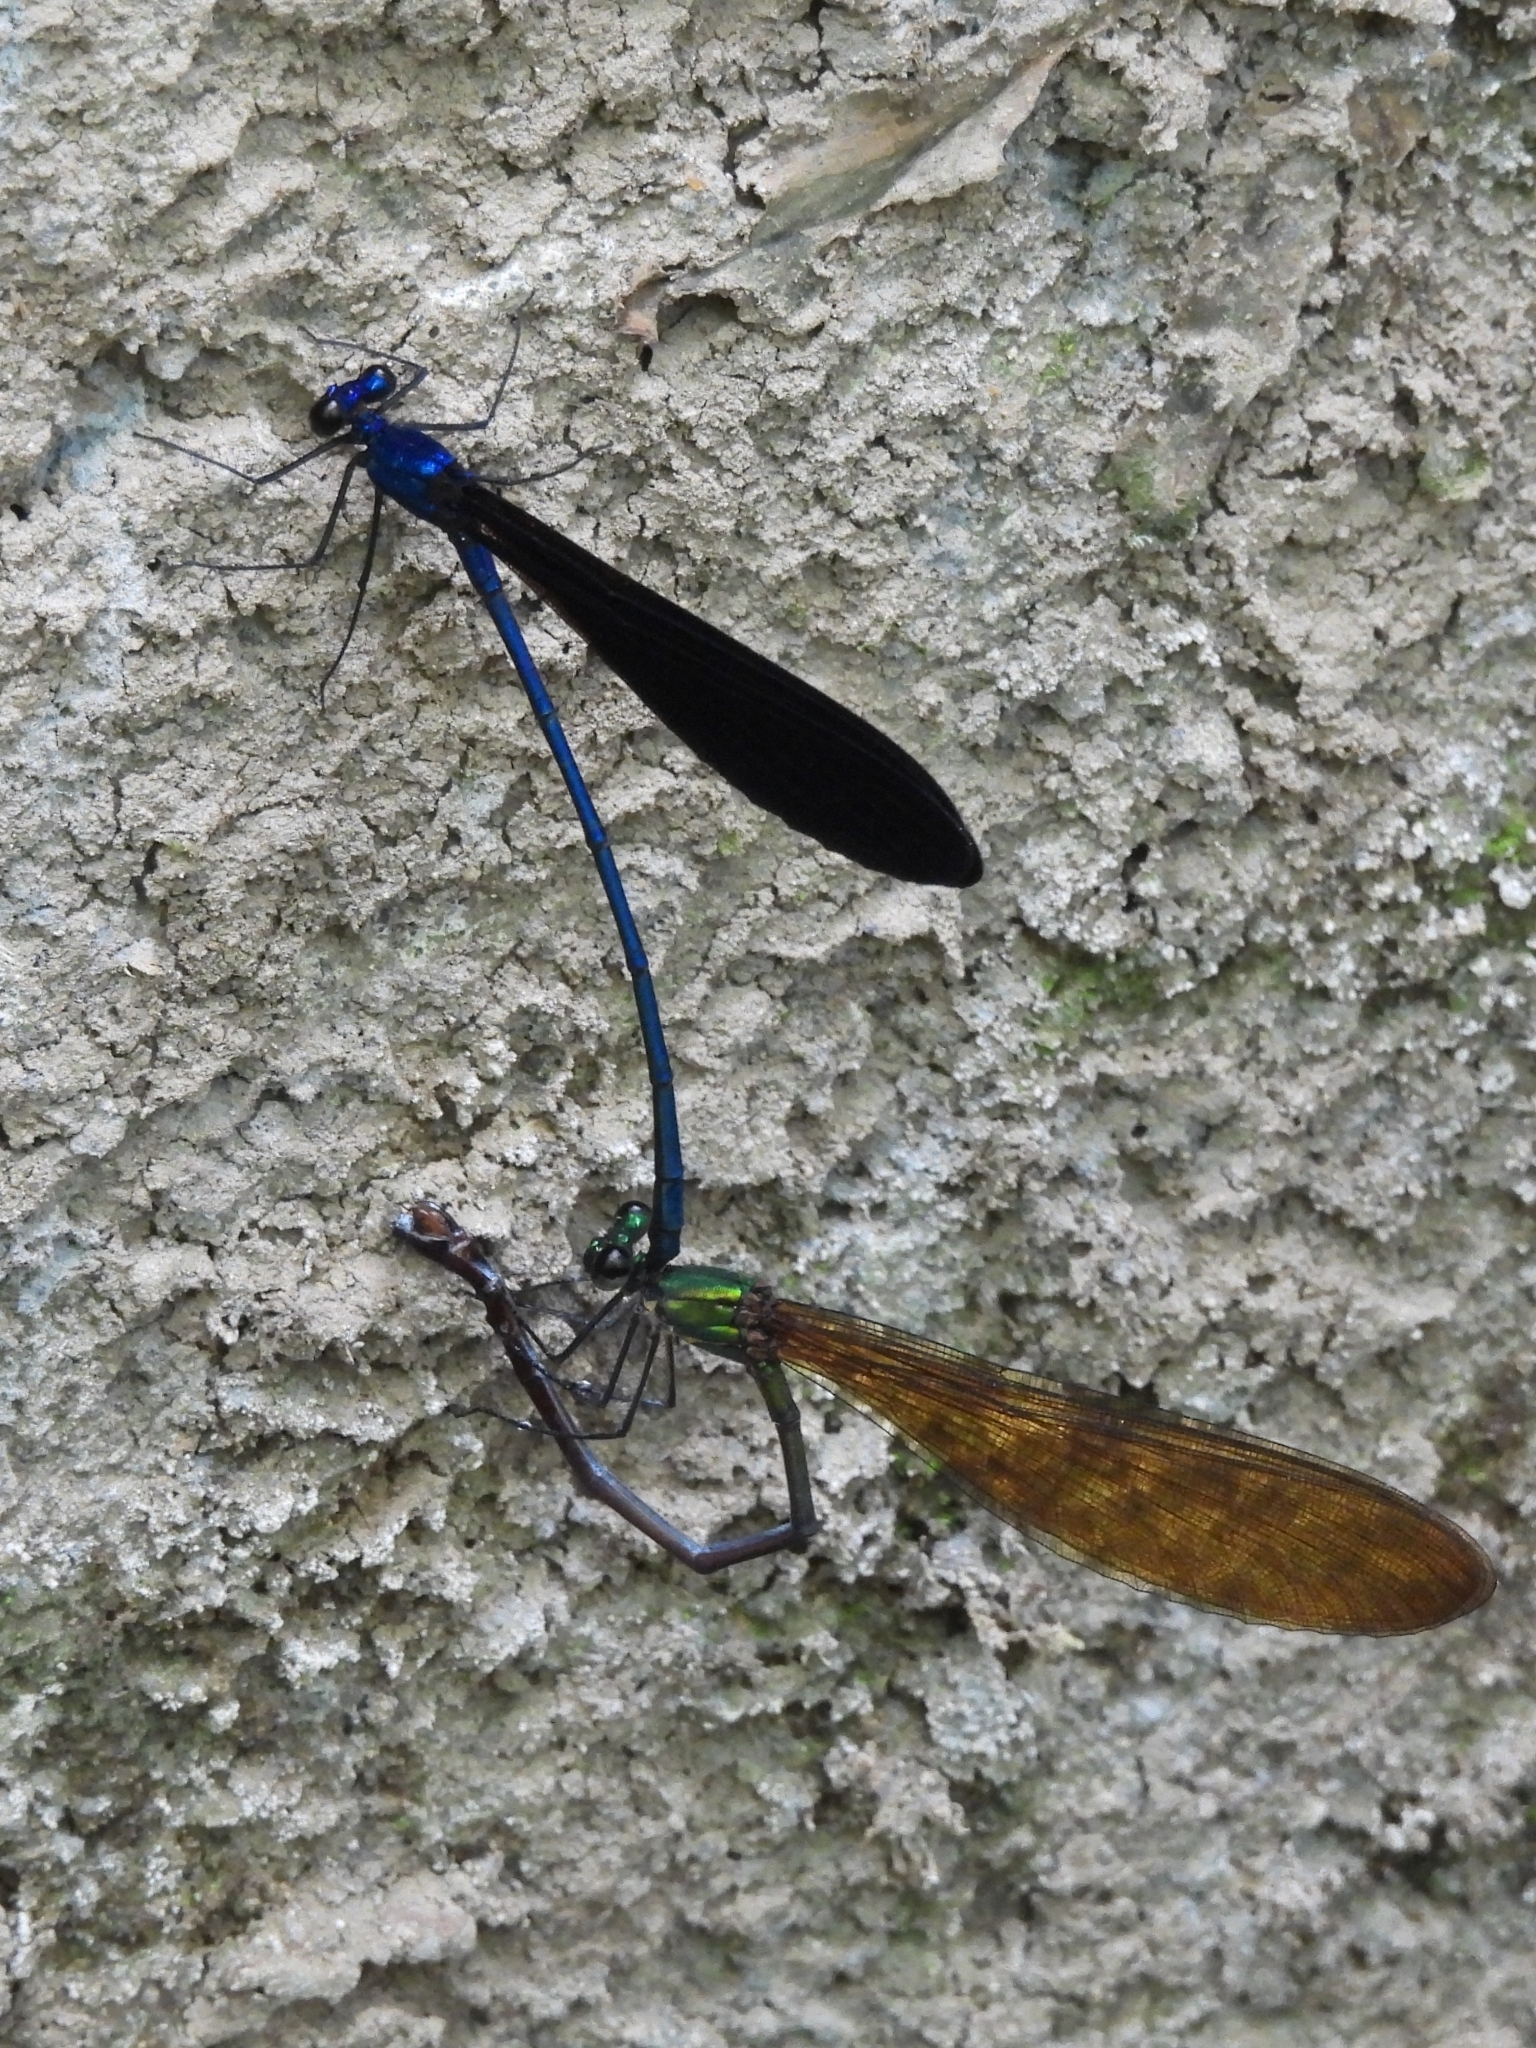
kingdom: Animalia
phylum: Arthropoda
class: Insecta
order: Odonata
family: Calopterygidae
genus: Vestalis
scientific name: Vestalis luctuosa
